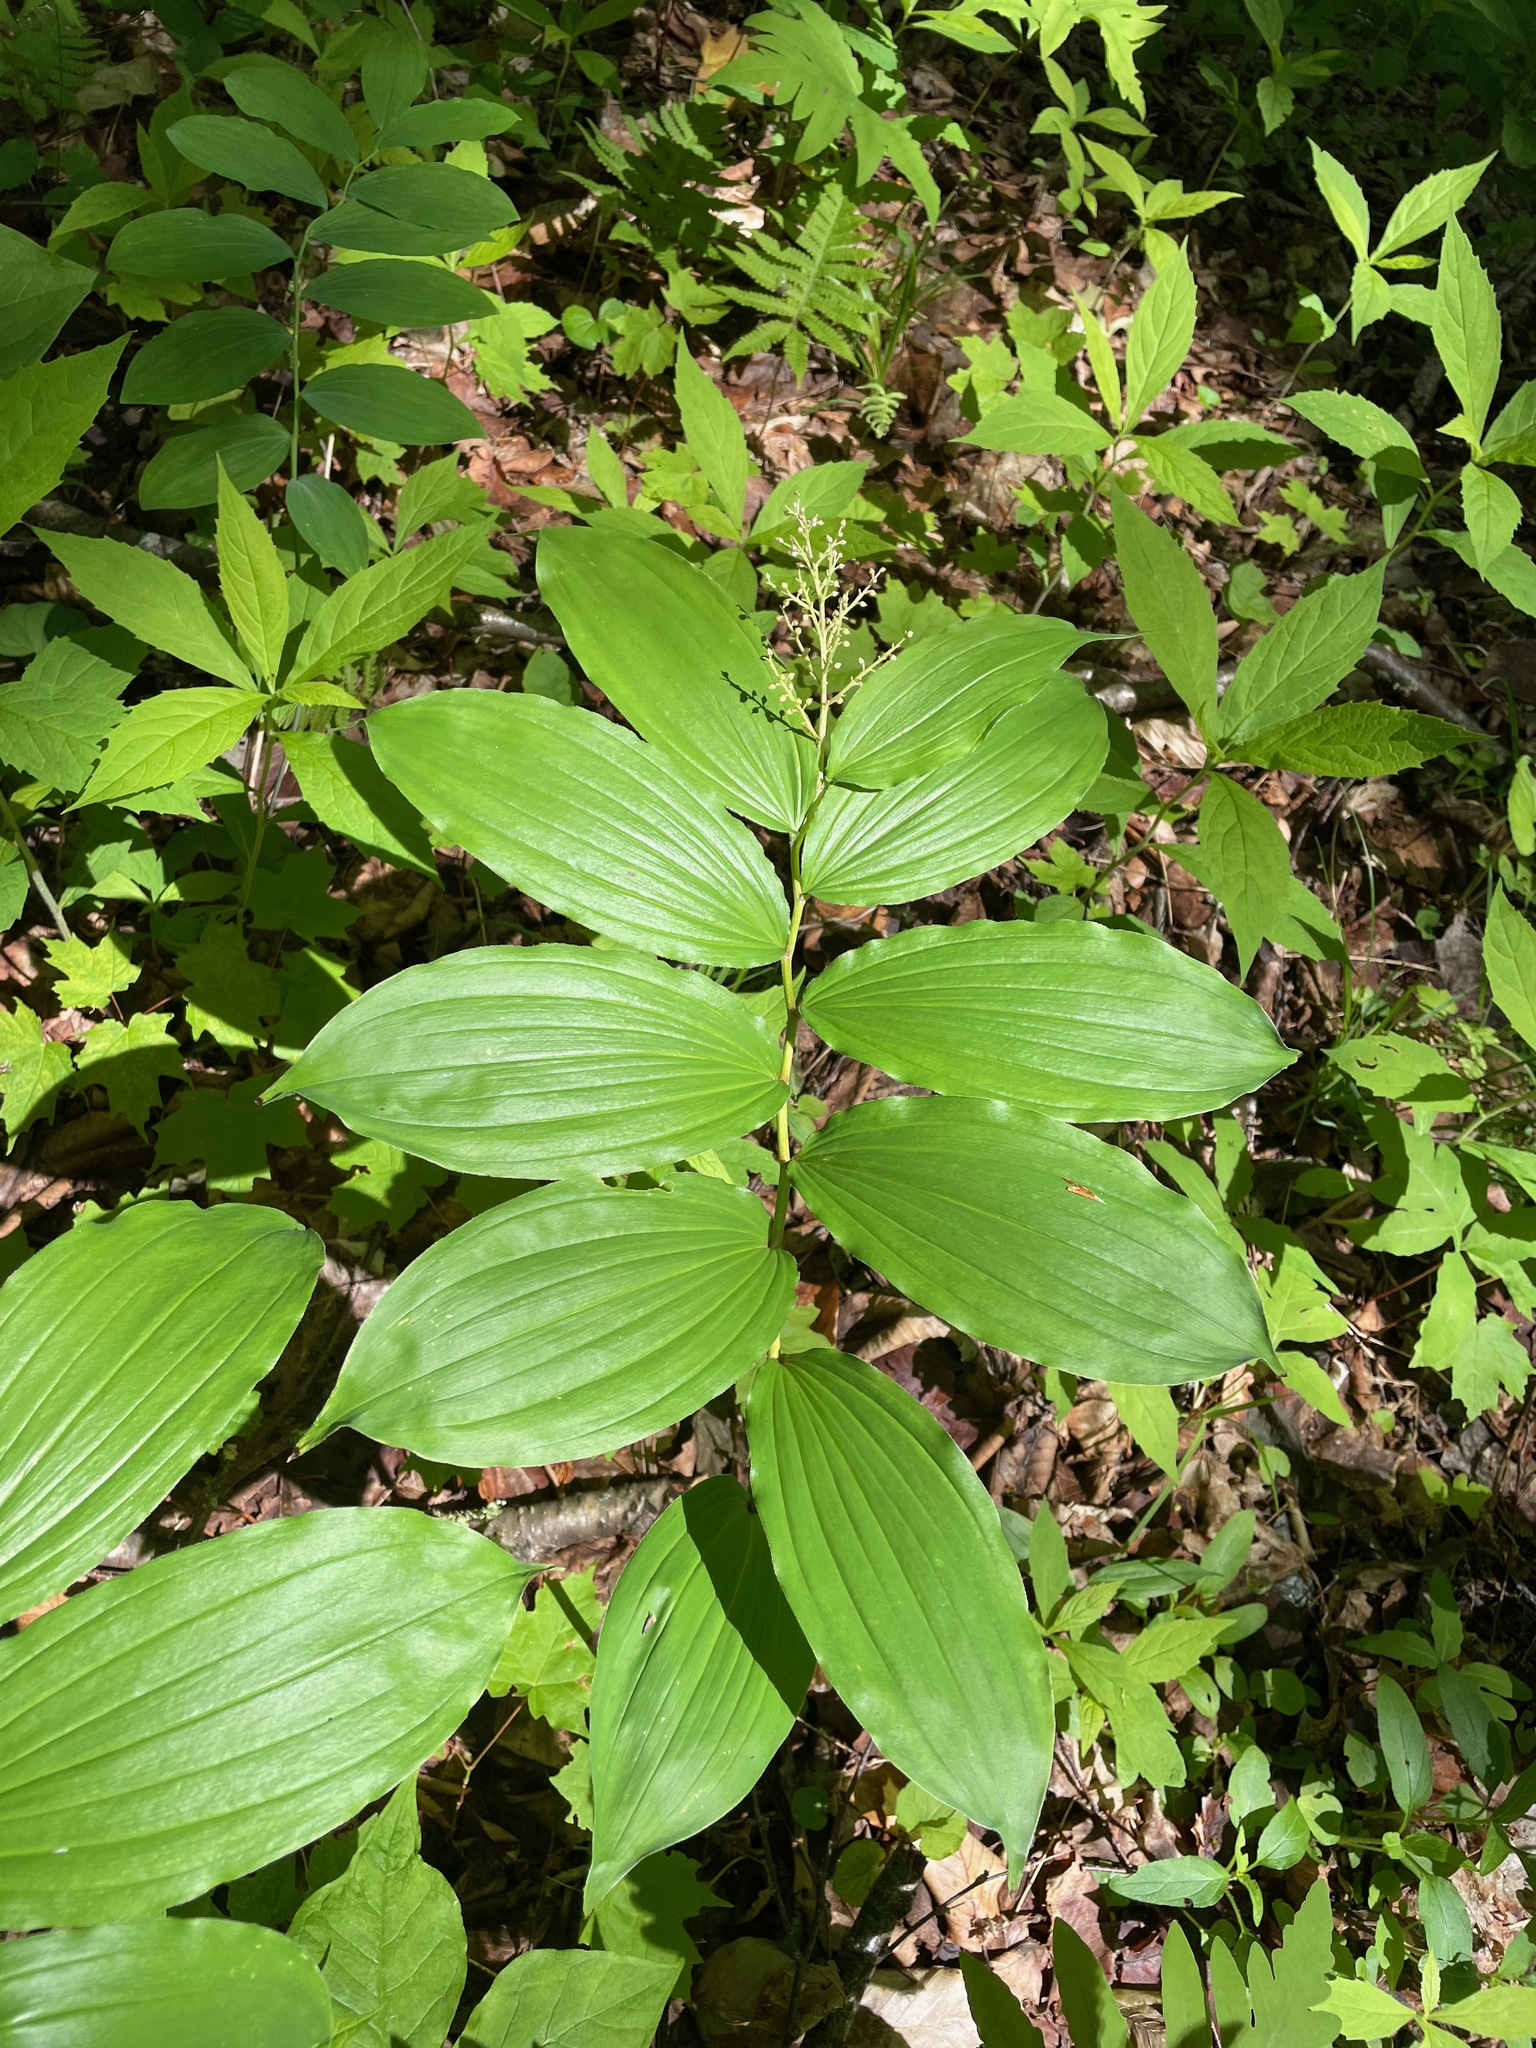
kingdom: Plantae
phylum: Tracheophyta
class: Liliopsida
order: Asparagales
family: Asparagaceae
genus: Maianthemum
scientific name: Maianthemum racemosum
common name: False spikenard
